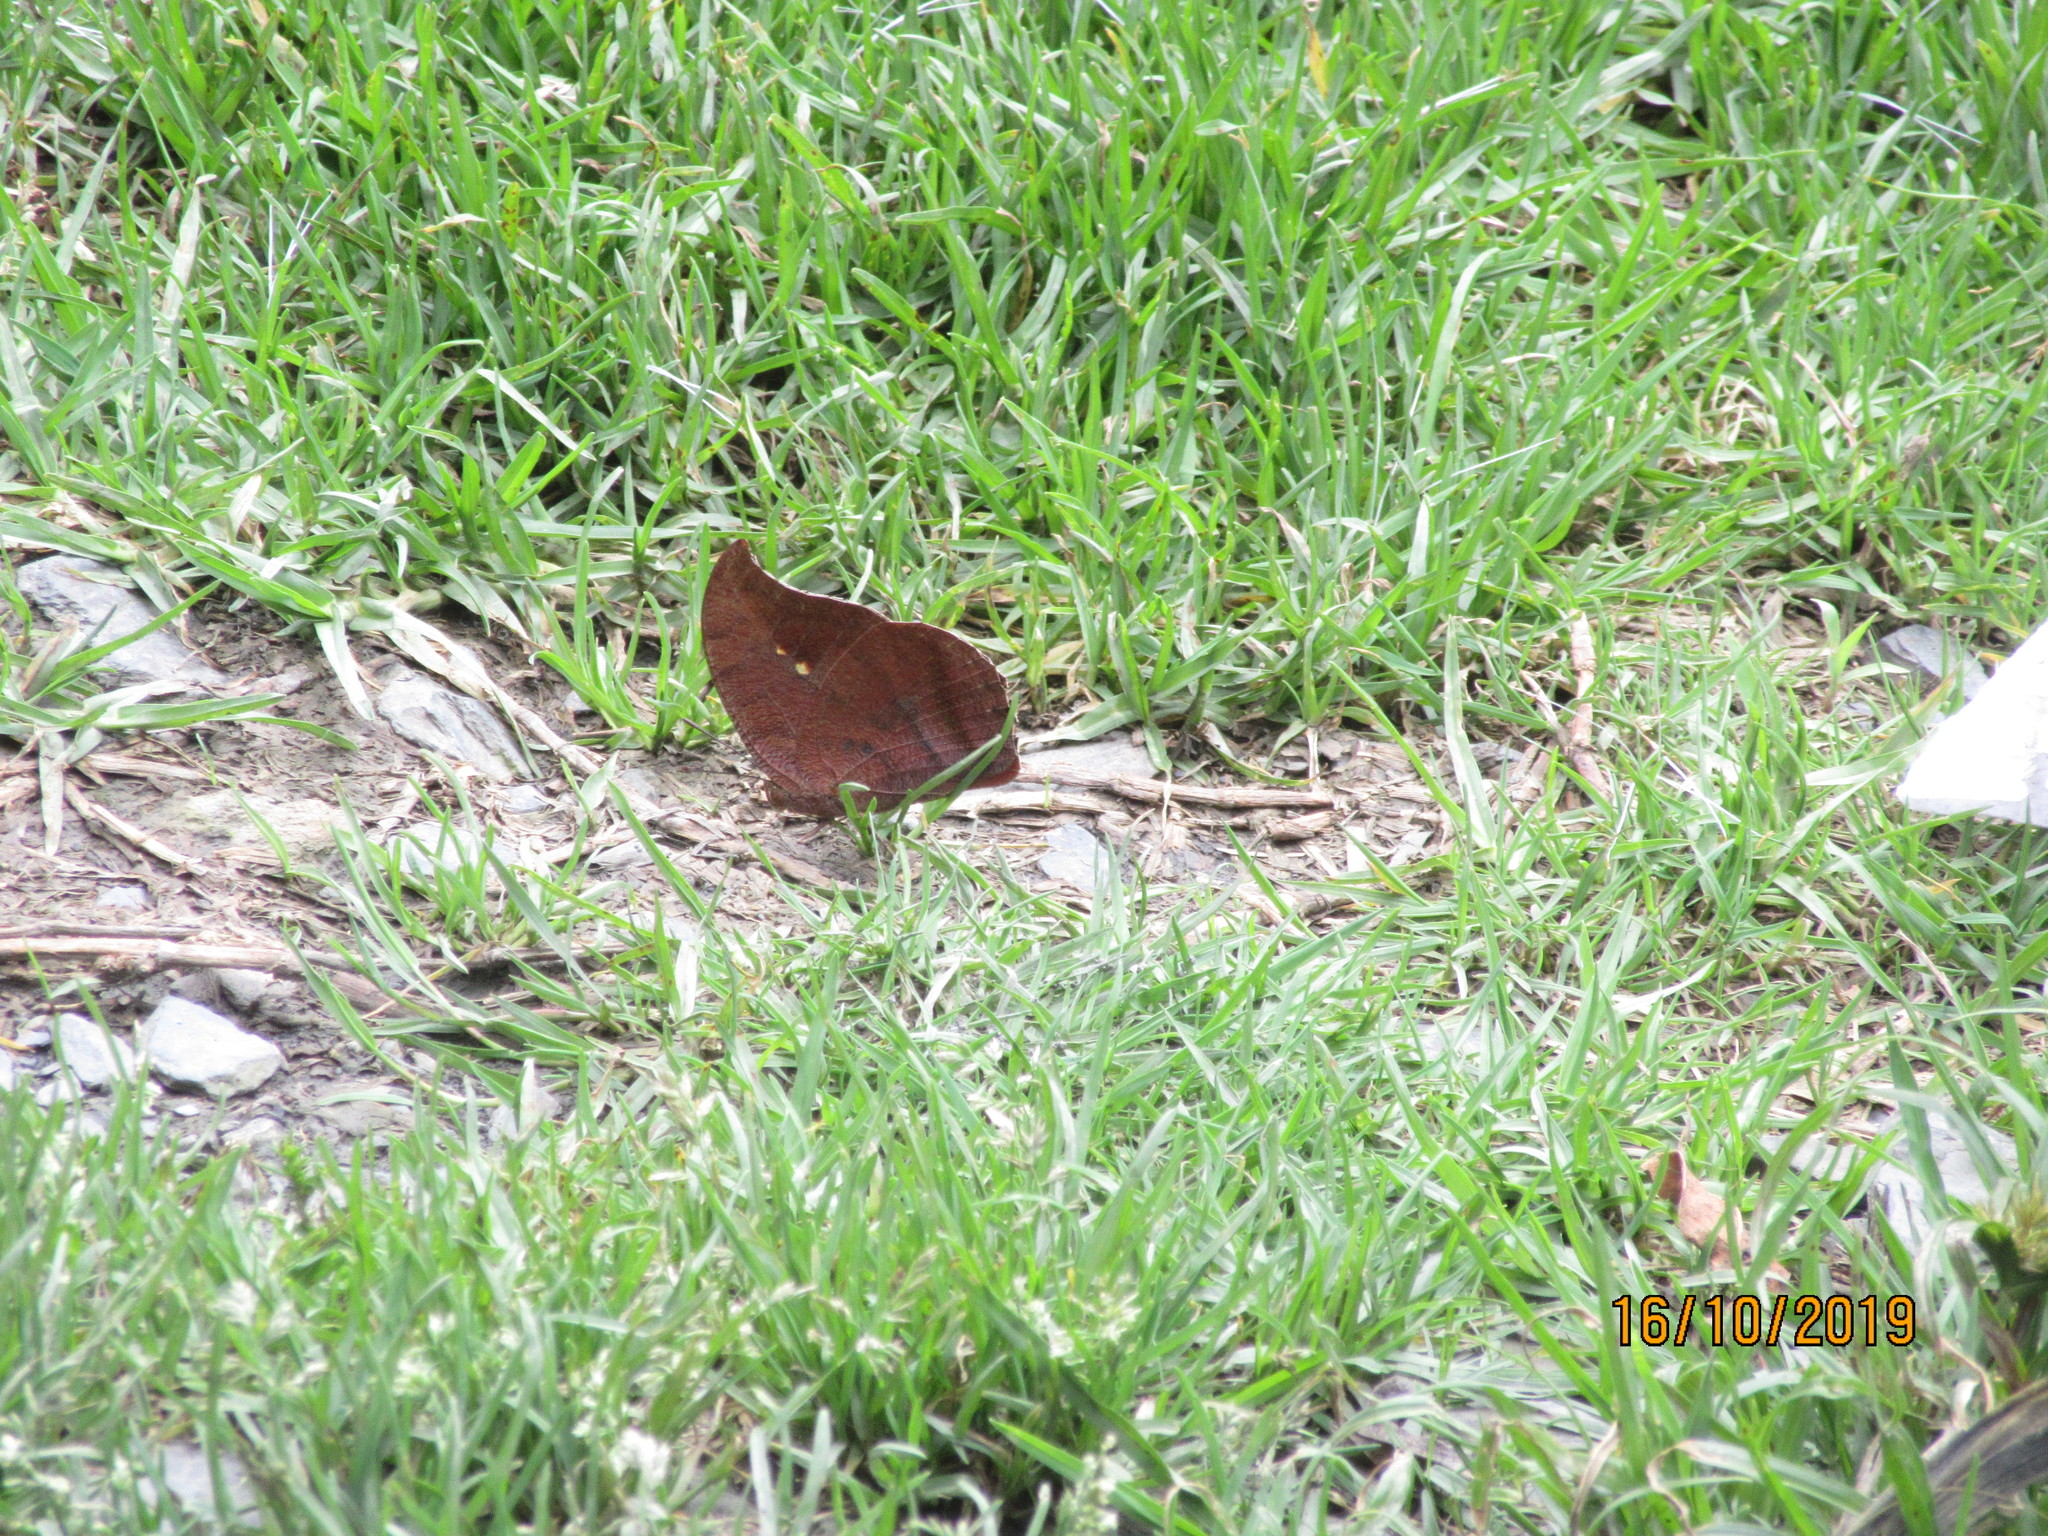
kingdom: Animalia
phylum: Arthropoda
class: Insecta
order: Lepidoptera
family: Nymphalidae
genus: Fountainea
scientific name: Fountainea
